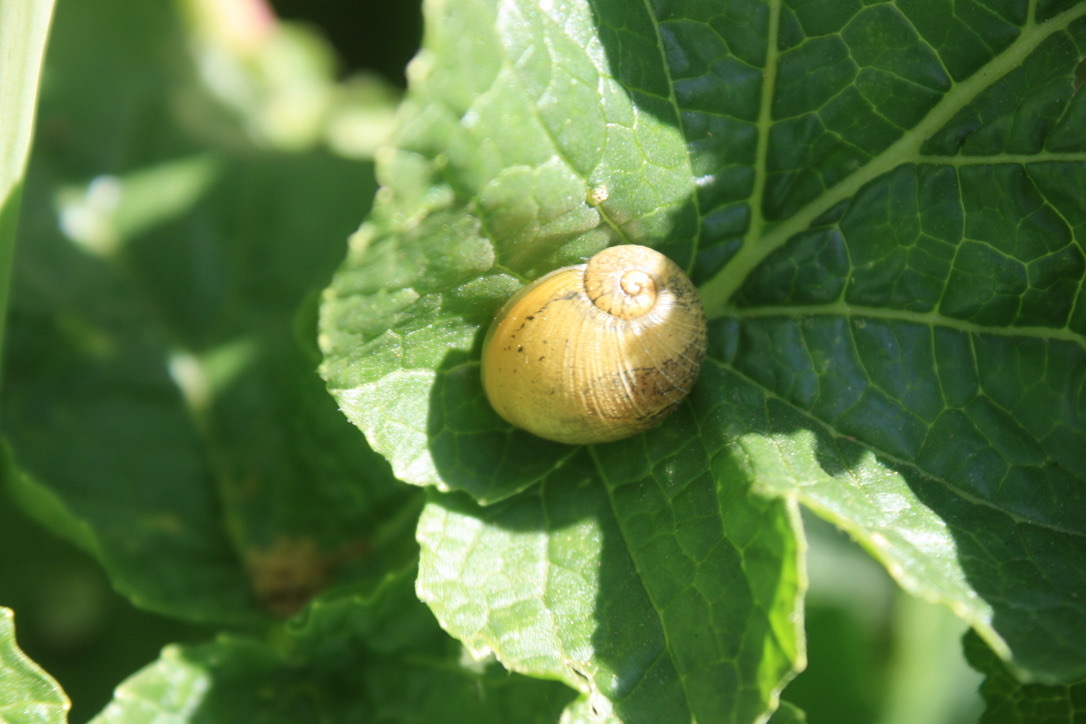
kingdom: Animalia
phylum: Mollusca
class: Gastropoda
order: Stylommatophora
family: Helicidae
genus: Cantareus
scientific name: Cantareus apertus
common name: Green gardensnail
